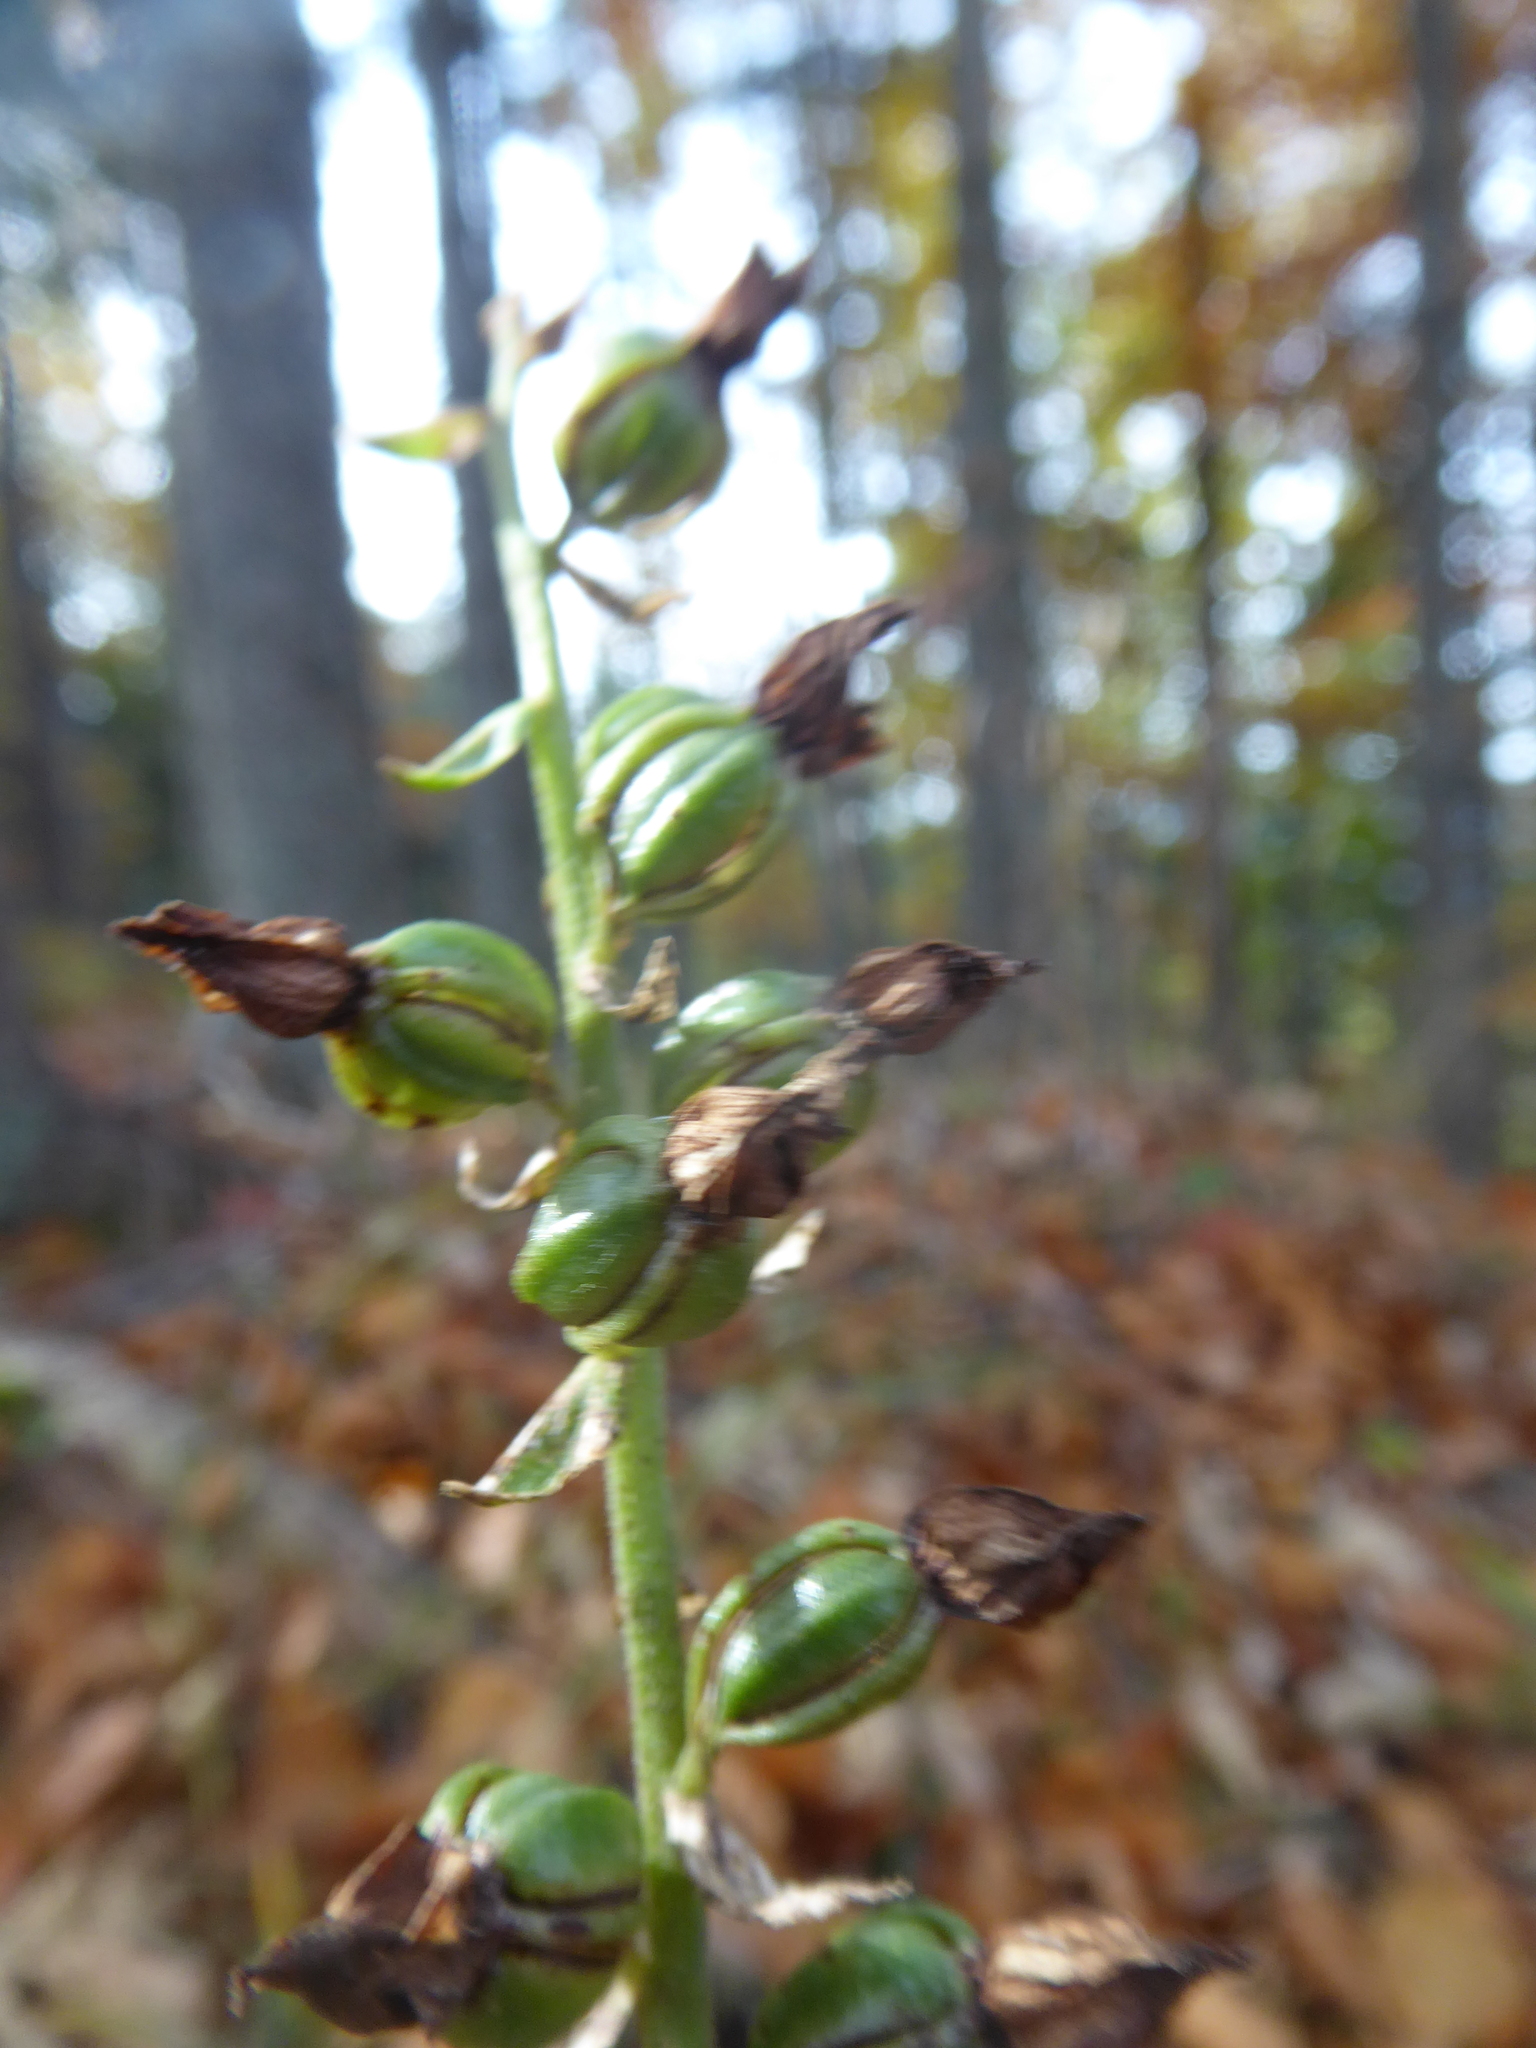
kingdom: Plantae
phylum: Tracheophyta
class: Liliopsida
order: Asparagales
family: Orchidaceae
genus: Epipactis
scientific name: Epipactis helleborine
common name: Broad-leaved helleborine
